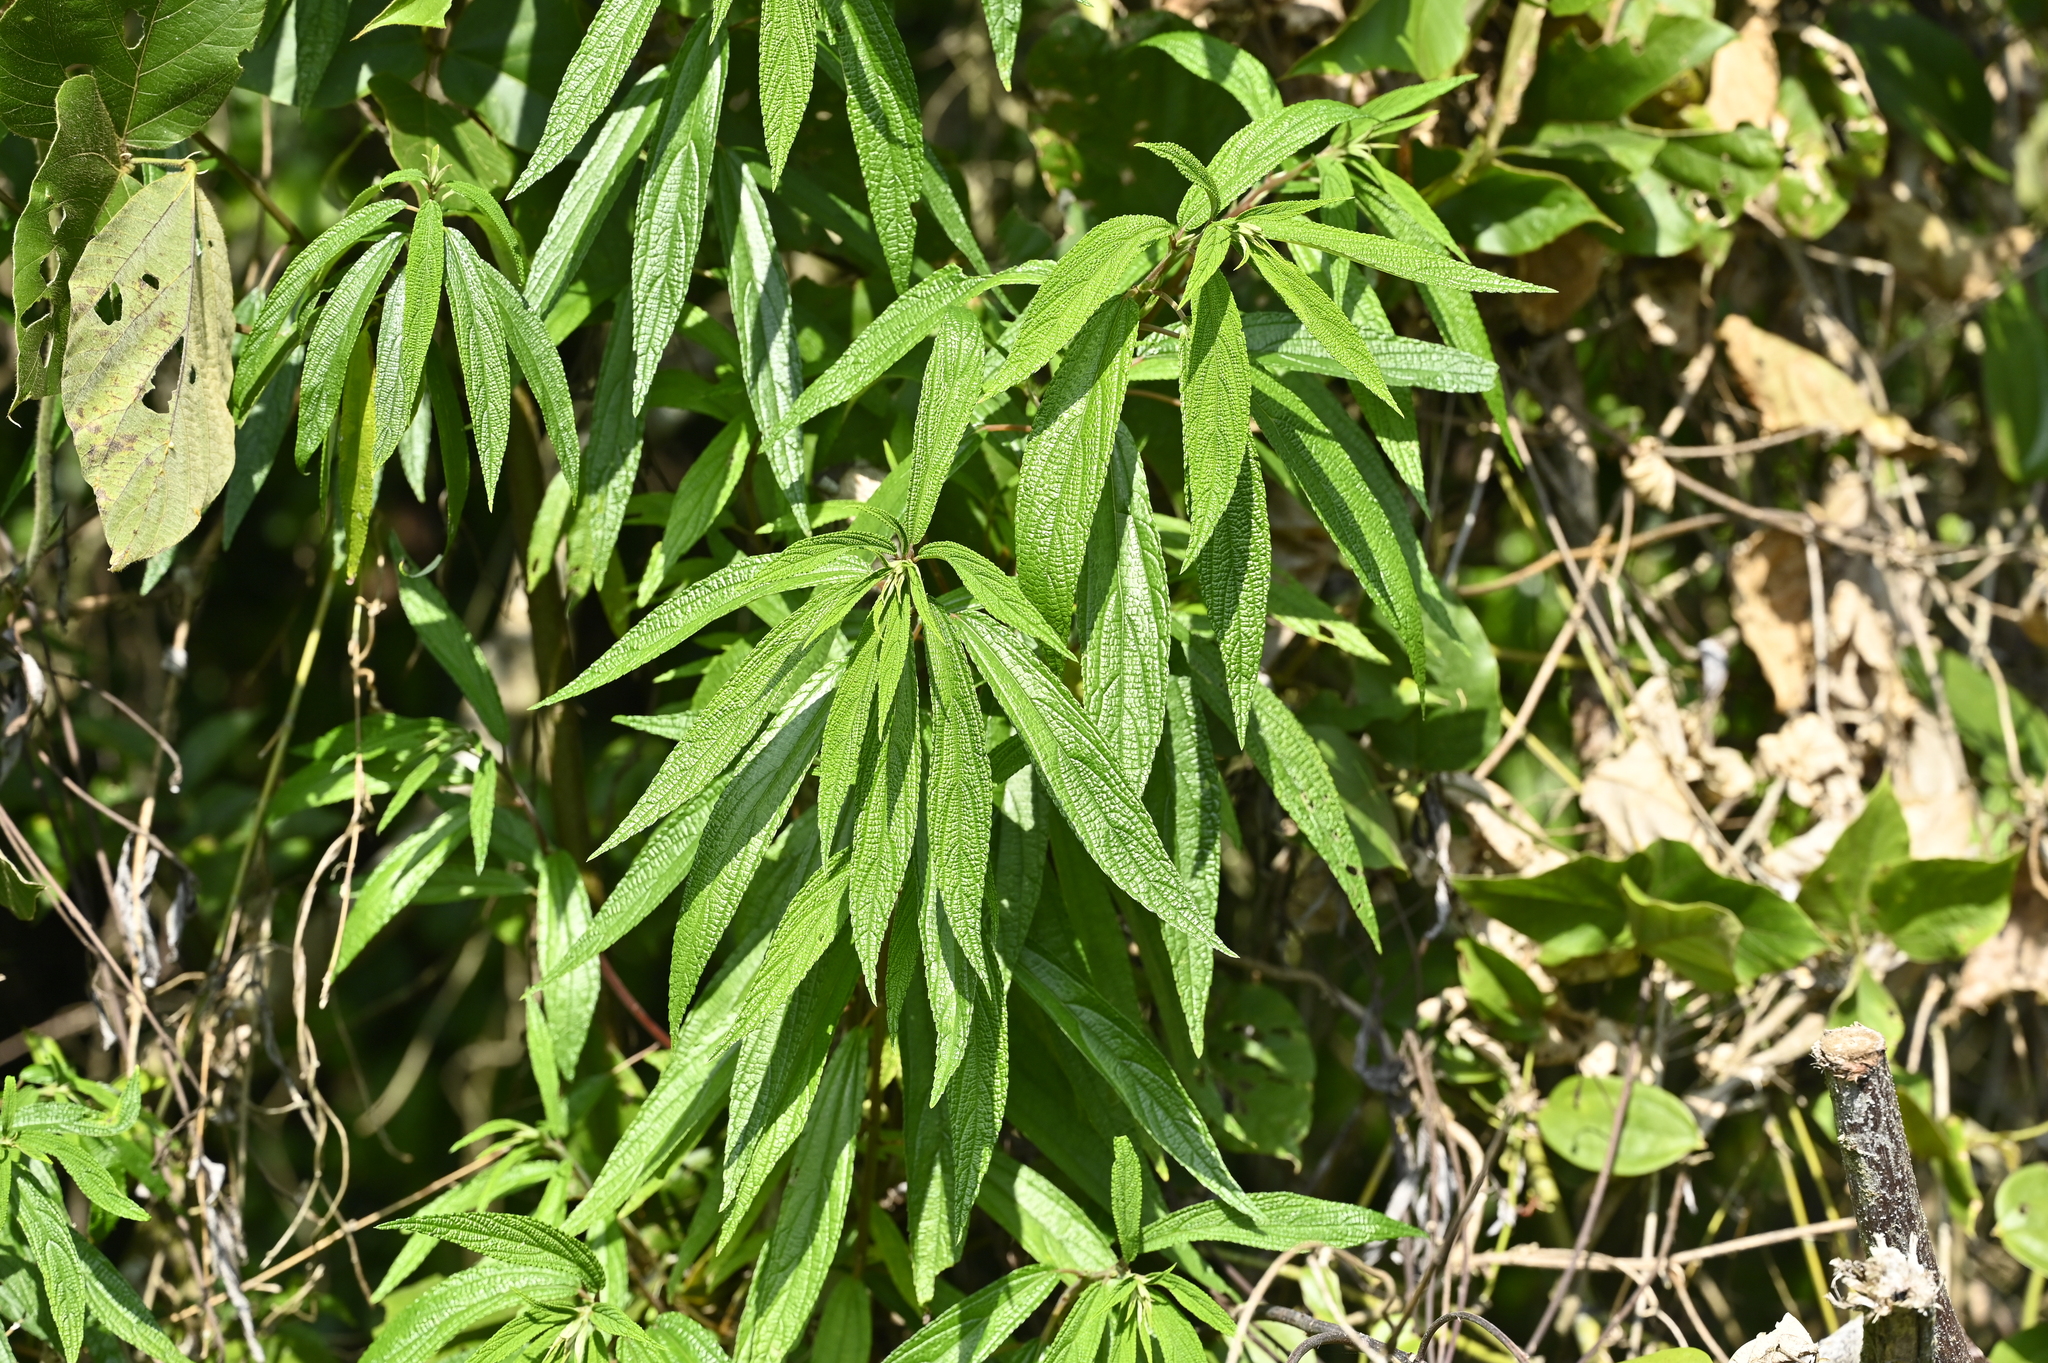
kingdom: Plantae
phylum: Tracheophyta
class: Magnoliopsida
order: Rosales
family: Urticaceae
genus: Debregeasia
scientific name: Debregeasia orientalis
